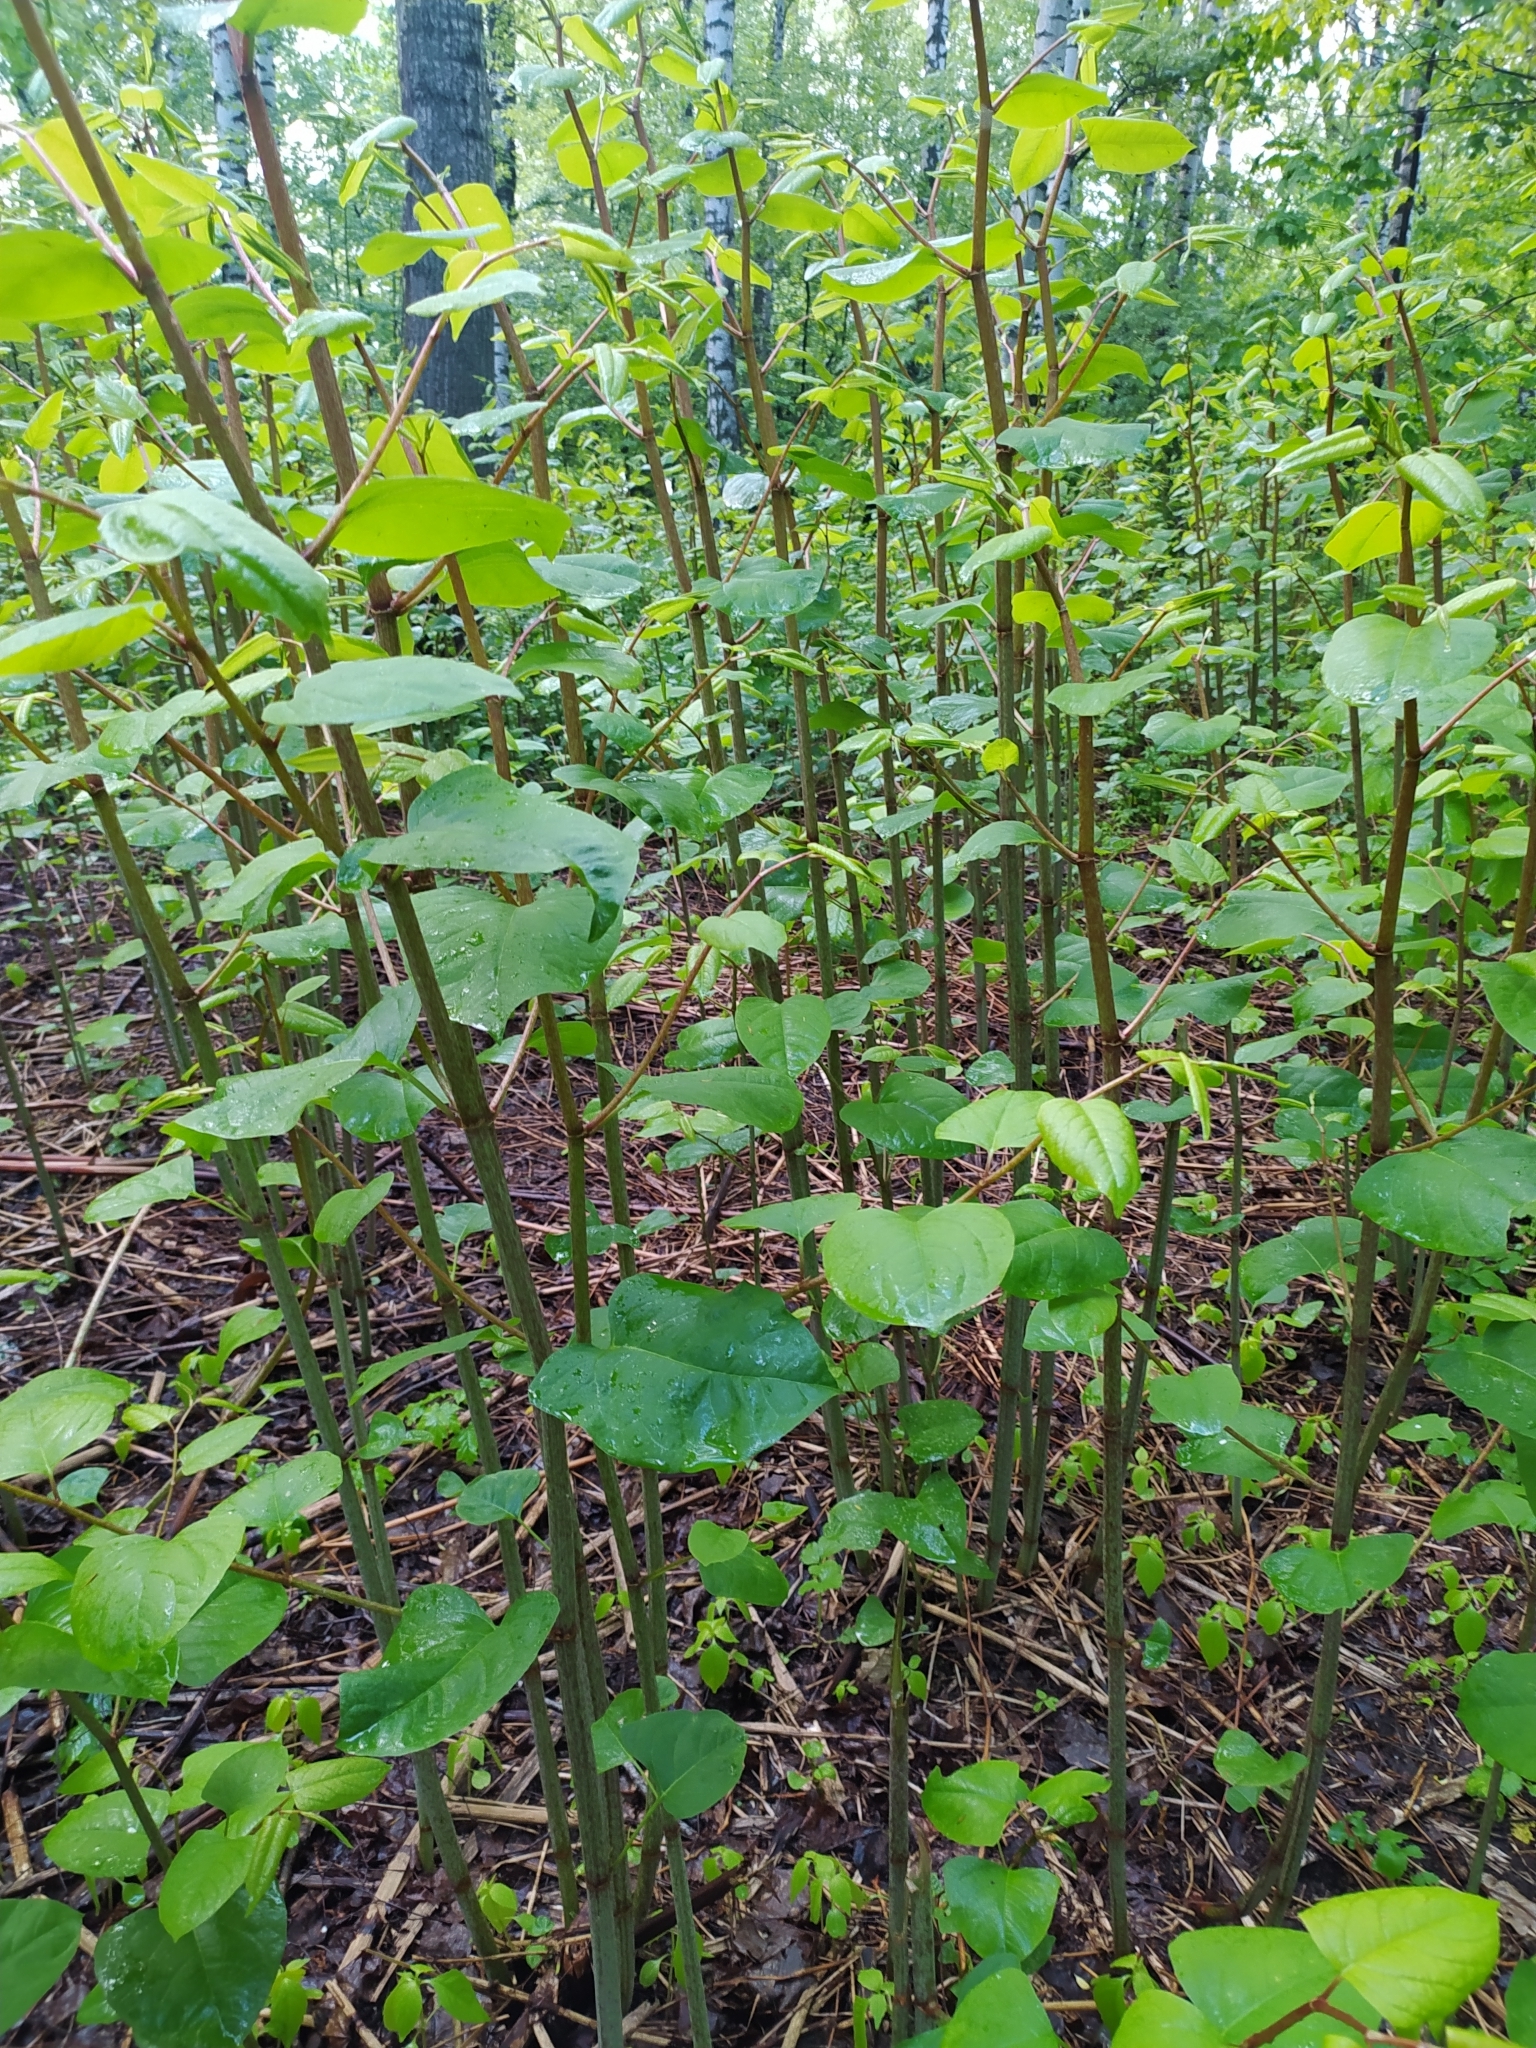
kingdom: Plantae
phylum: Tracheophyta
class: Magnoliopsida
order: Caryophyllales
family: Polygonaceae
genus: Reynoutria
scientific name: Reynoutria bohemica
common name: Bohemian knotweed
